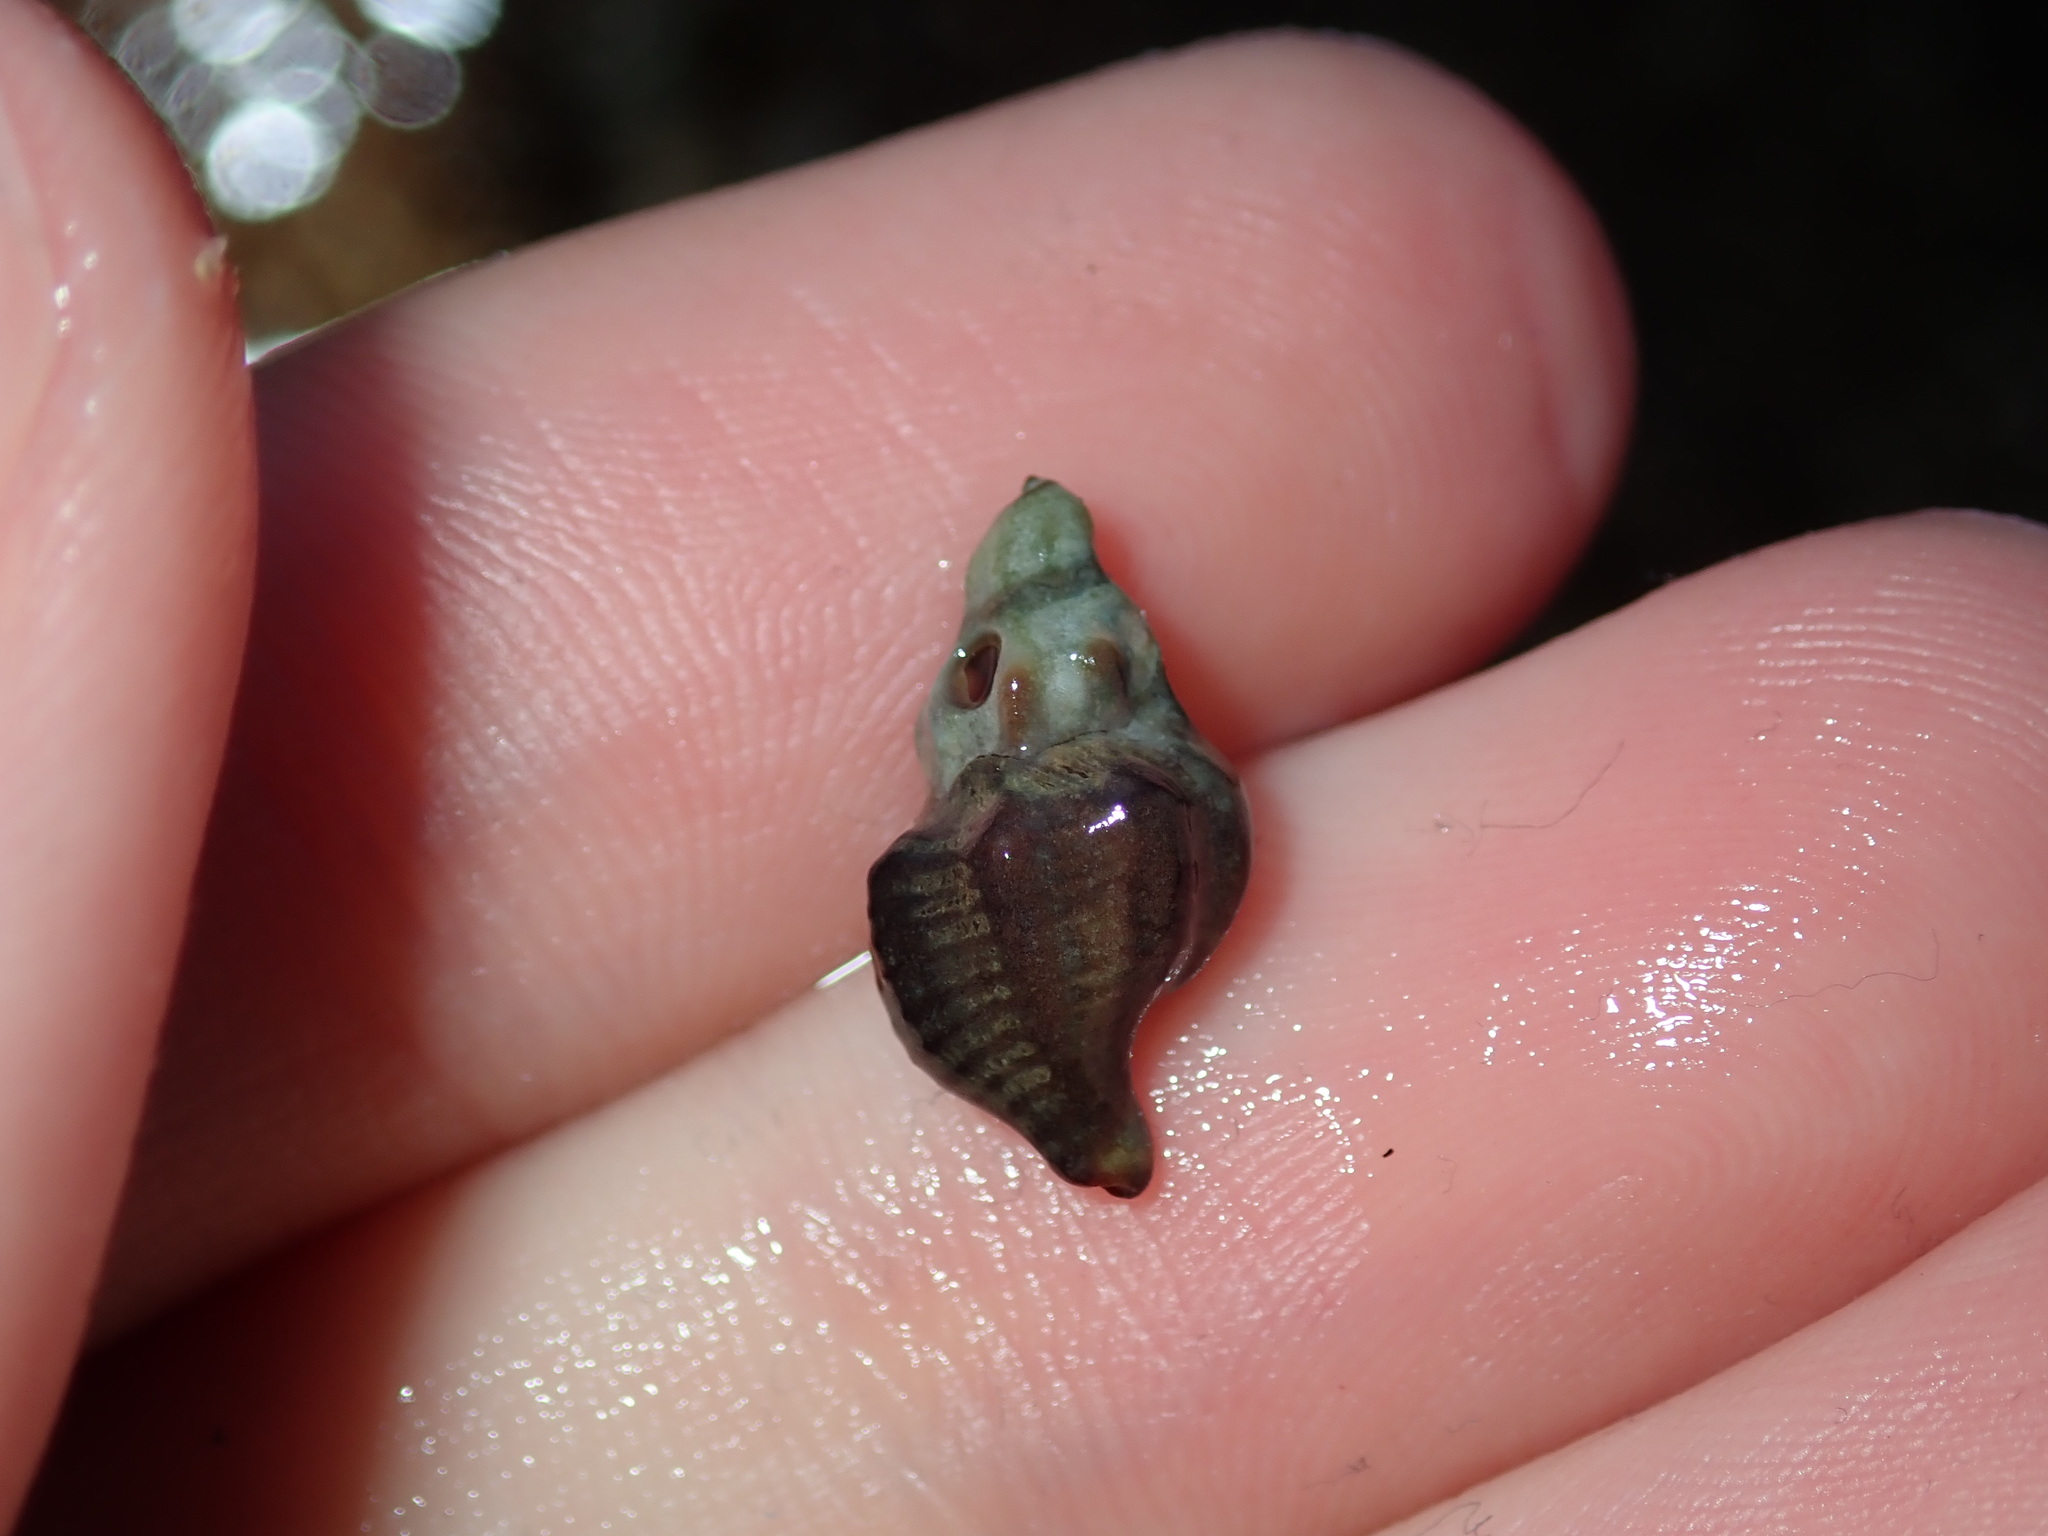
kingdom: Animalia
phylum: Mollusca
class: Gastropoda
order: Neogastropoda
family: Muricidae
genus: Bedeva
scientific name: Bedeva paivae
